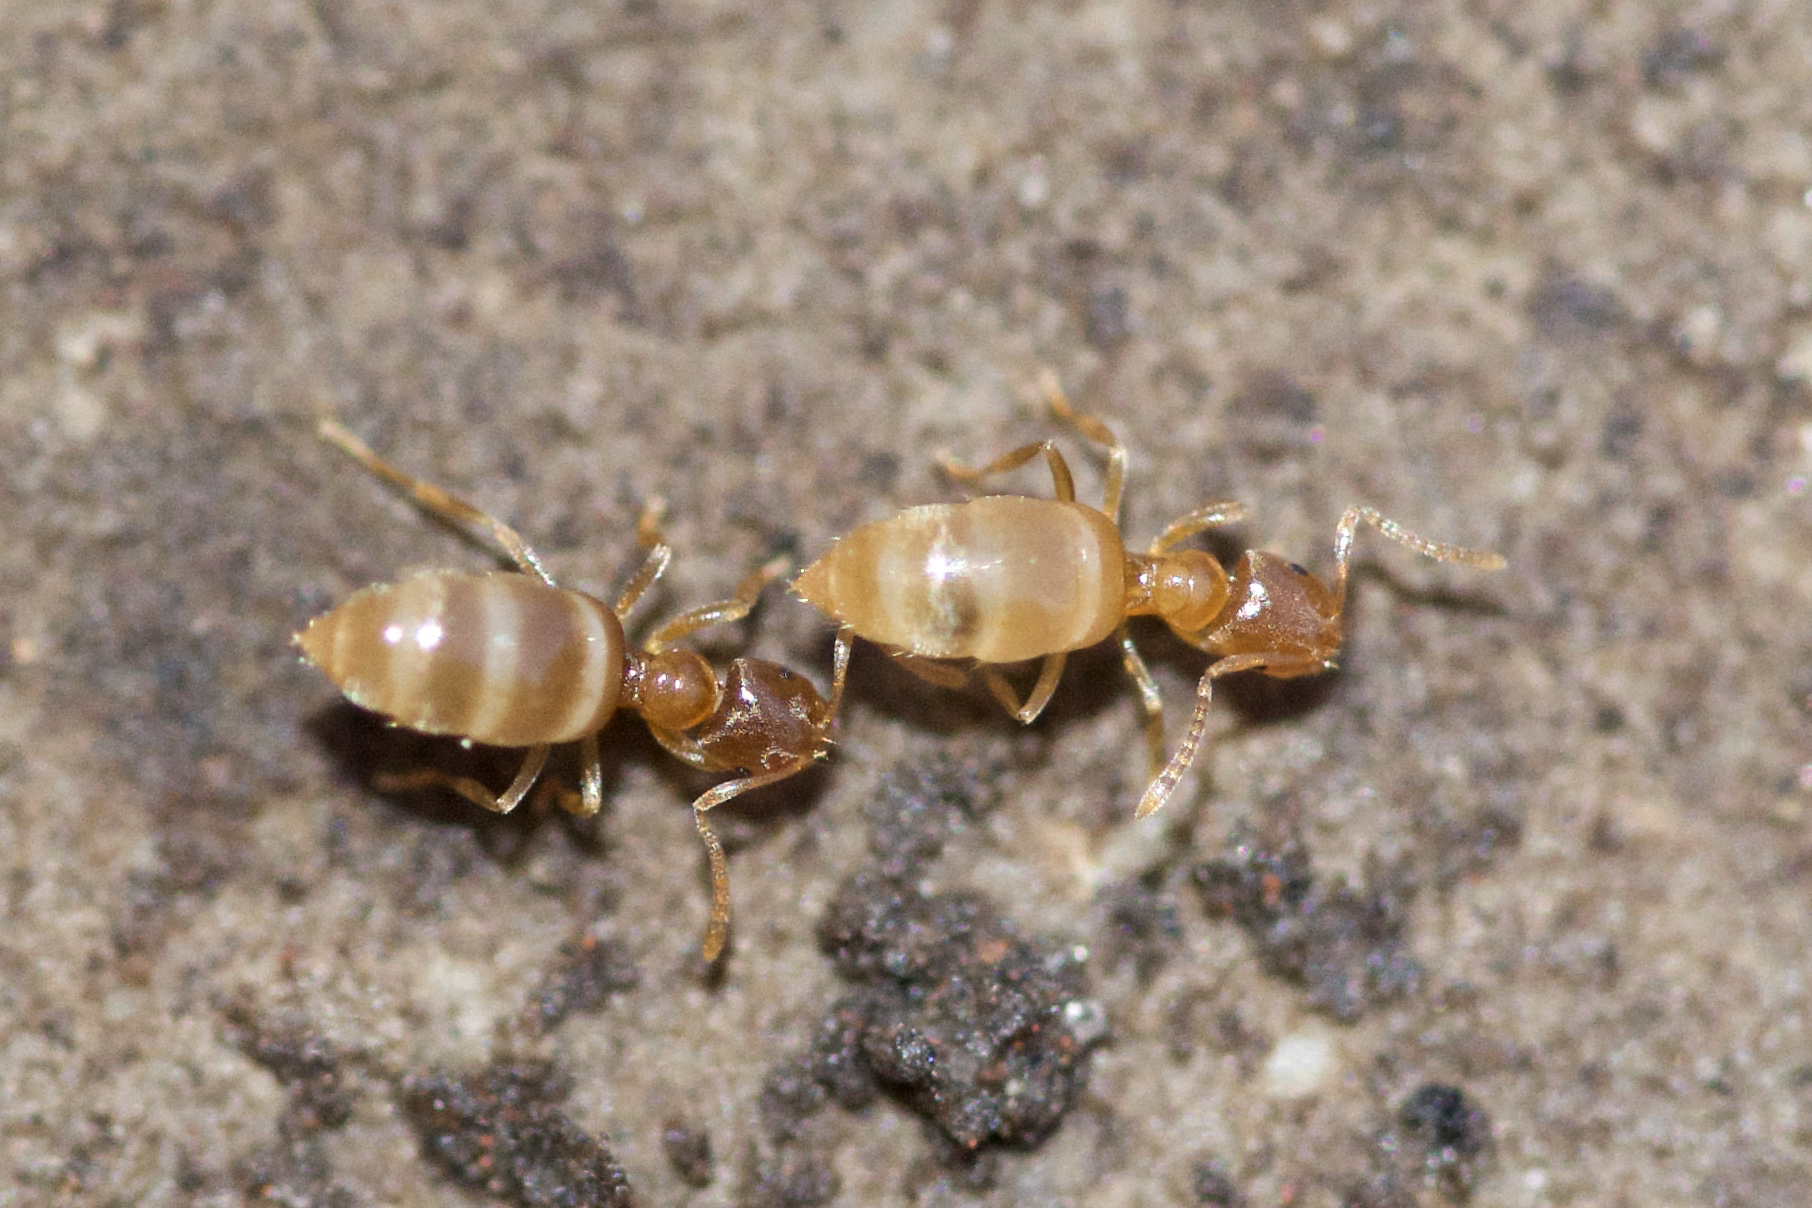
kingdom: Animalia
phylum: Arthropoda
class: Insecta
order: Hymenoptera
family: Formicidae
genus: Brachymyrmex
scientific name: Brachymyrmex depilis
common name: Hairless rover ant
